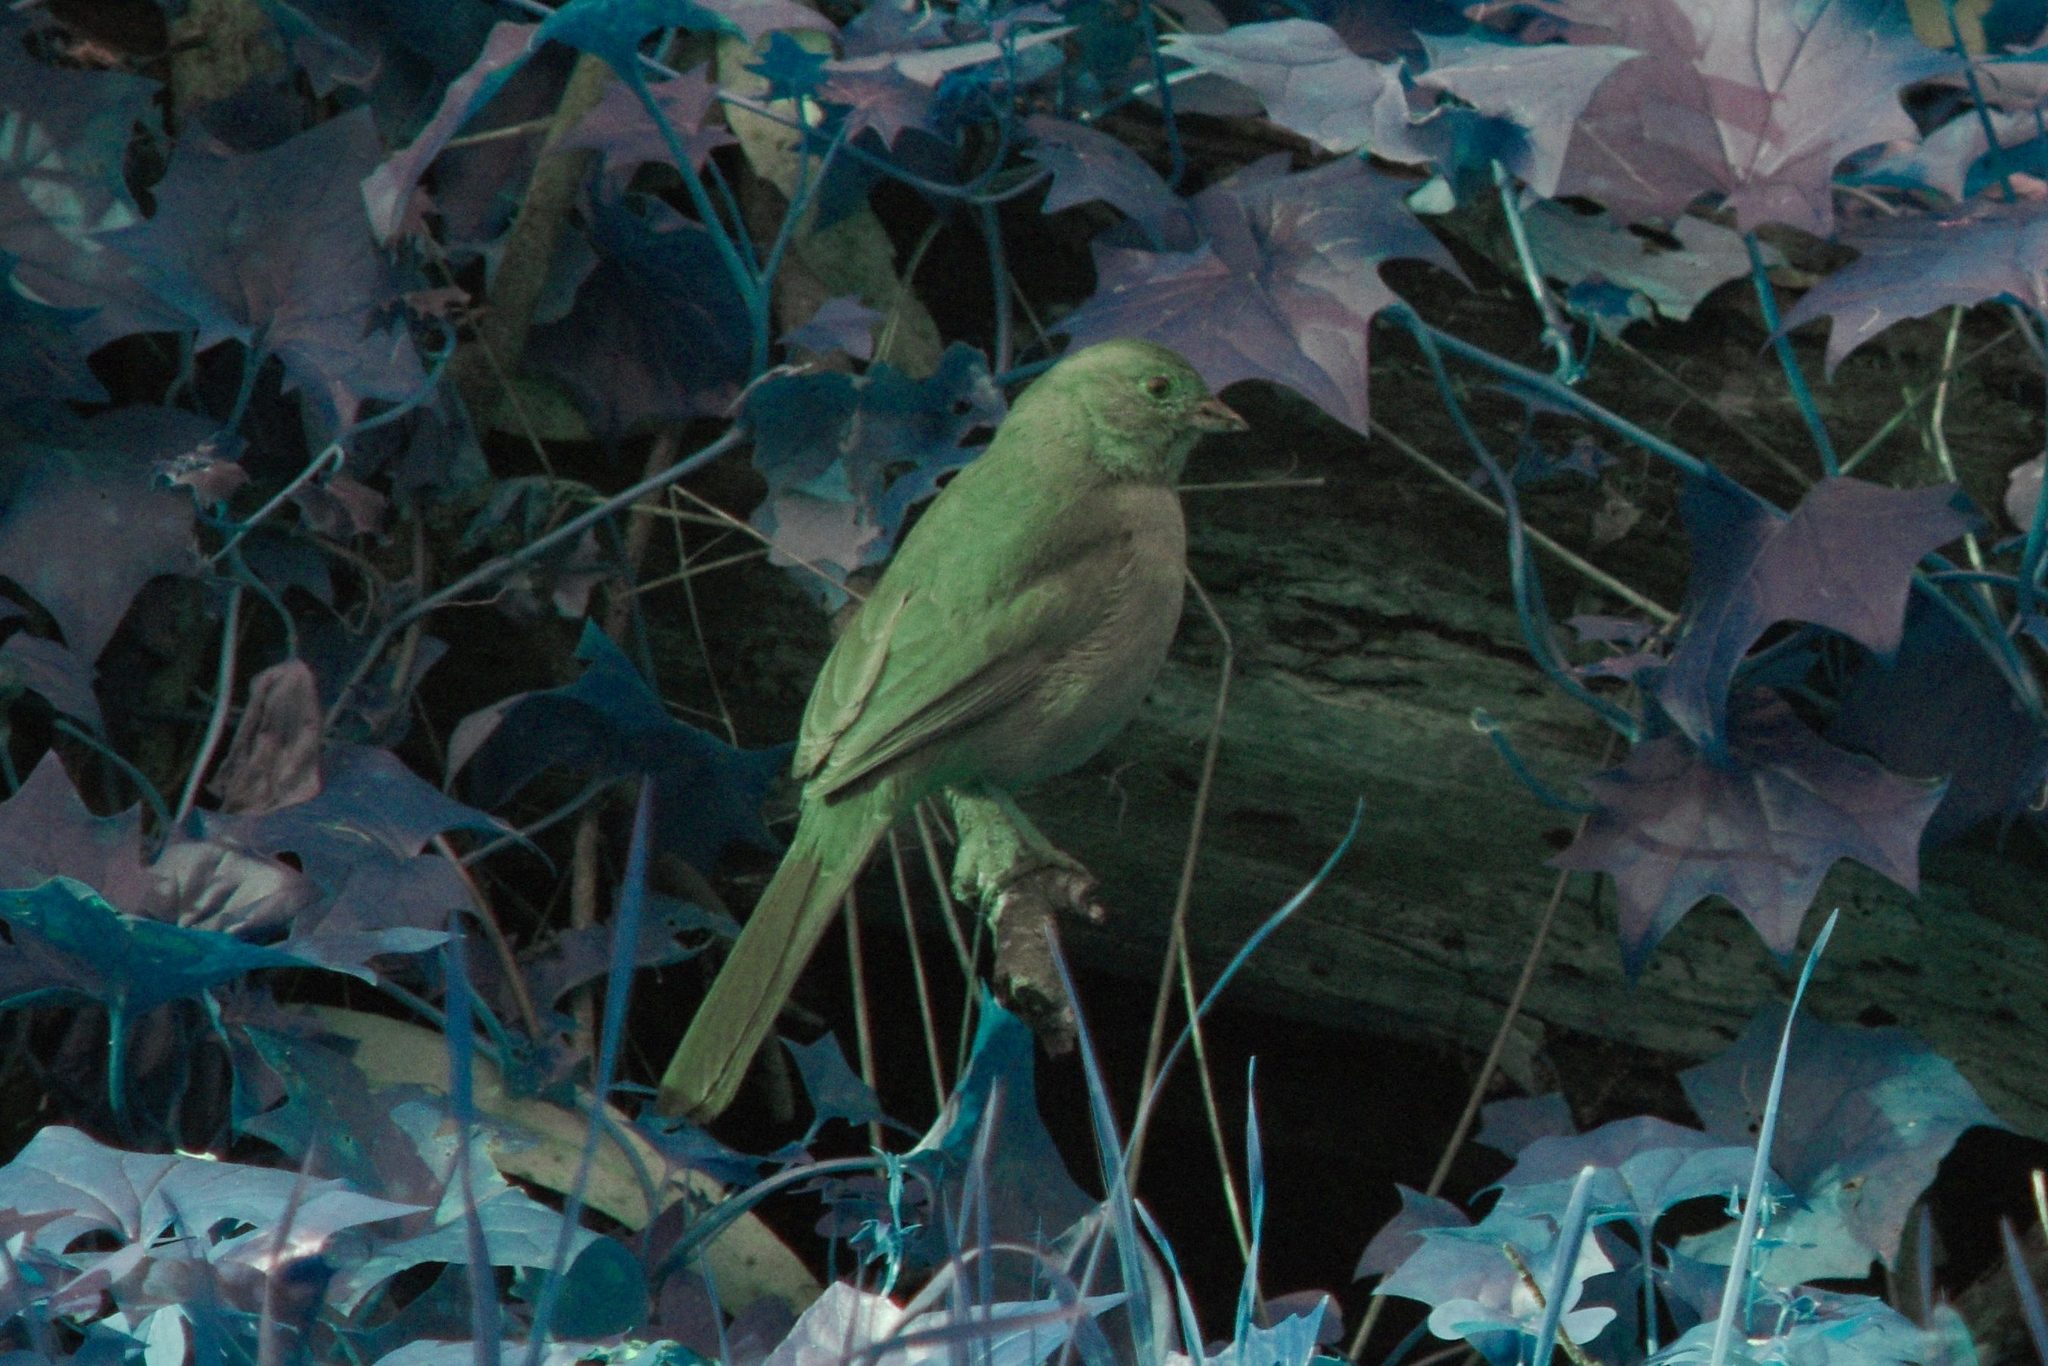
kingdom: Animalia
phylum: Chordata
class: Aves
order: Passeriformes
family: Passerellidae
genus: Melozone
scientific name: Melozone crissalis
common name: California towhee
